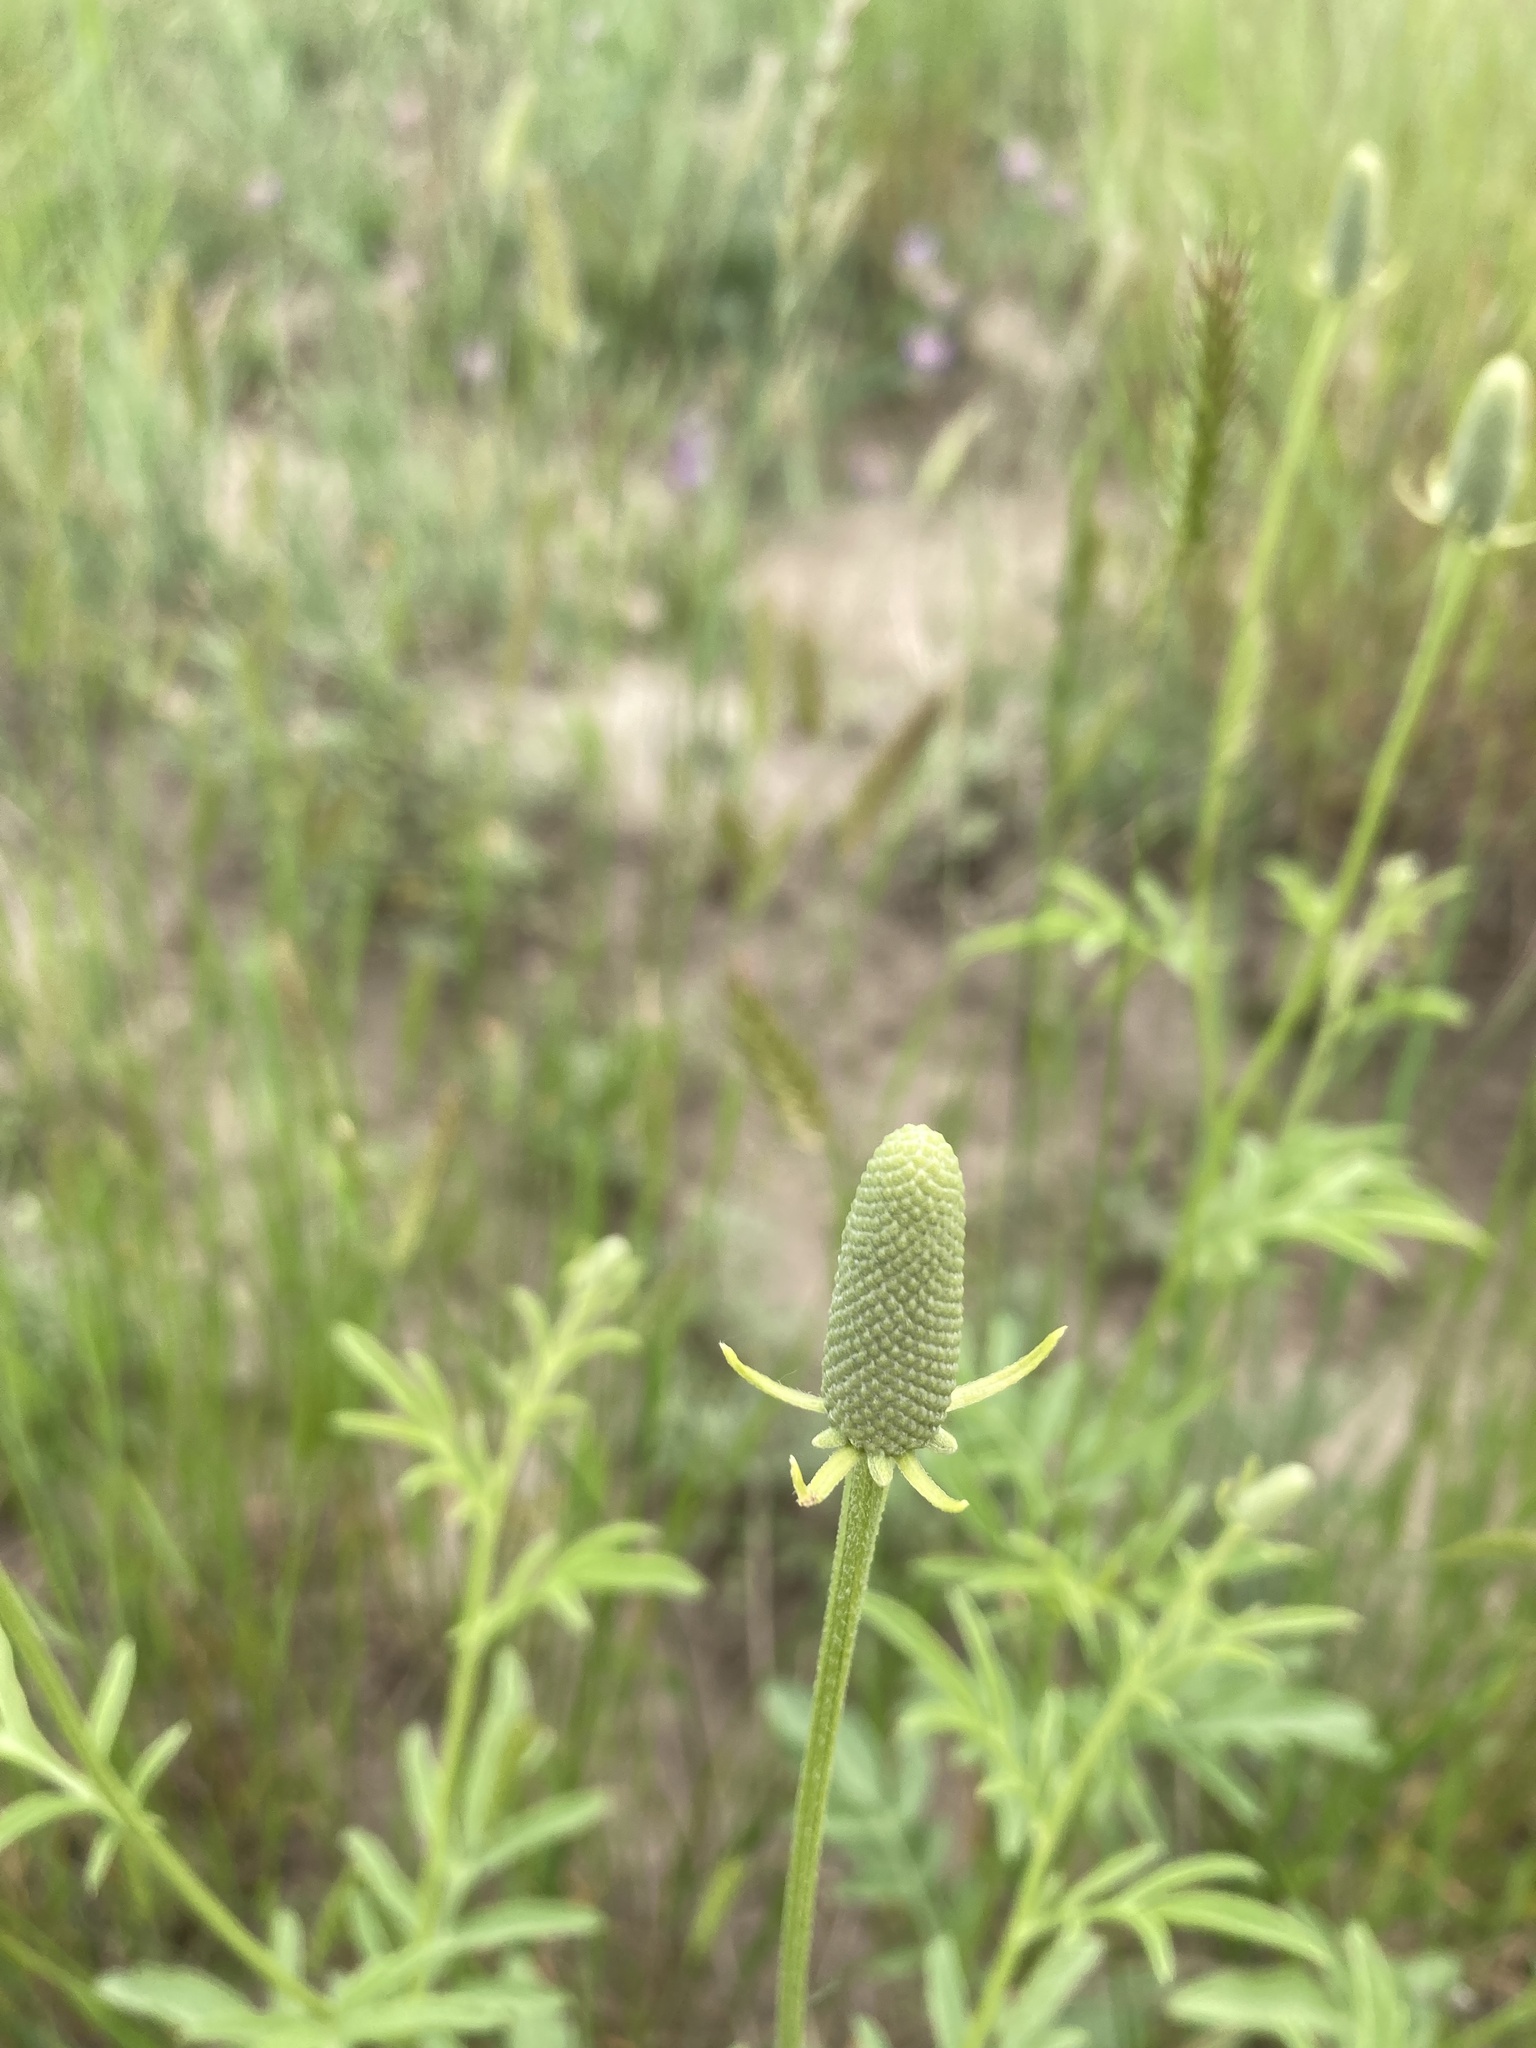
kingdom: Plantae
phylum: Tracheophyta
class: Magnoliopsida
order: Asterales
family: Asteraceae
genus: Ratibida
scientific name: Ratibida columnifera
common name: Prairie coneflower
